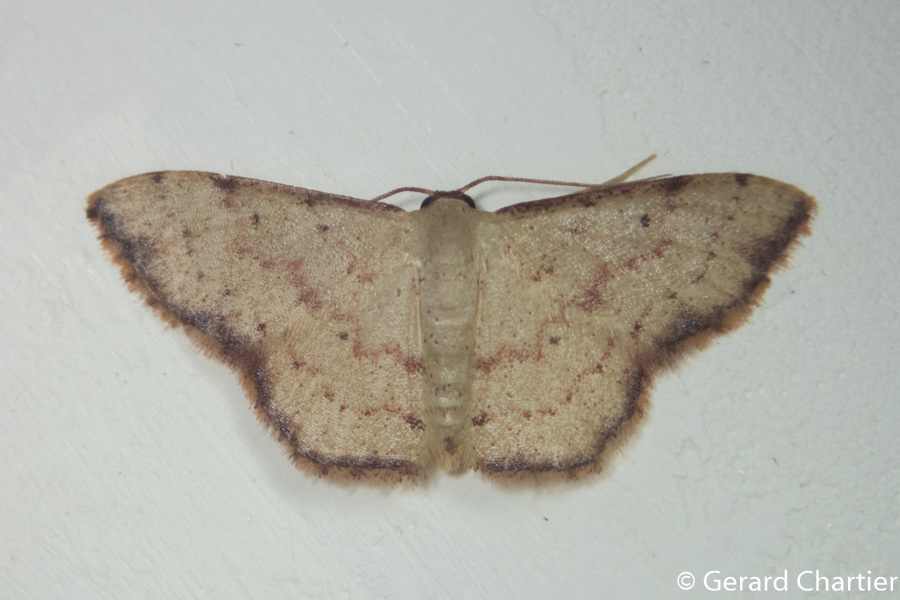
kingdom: Animalia
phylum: Arthropoda
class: Insecta
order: Lepidoptera
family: Geometridae
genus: Idaea
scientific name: Idaea craspedota
